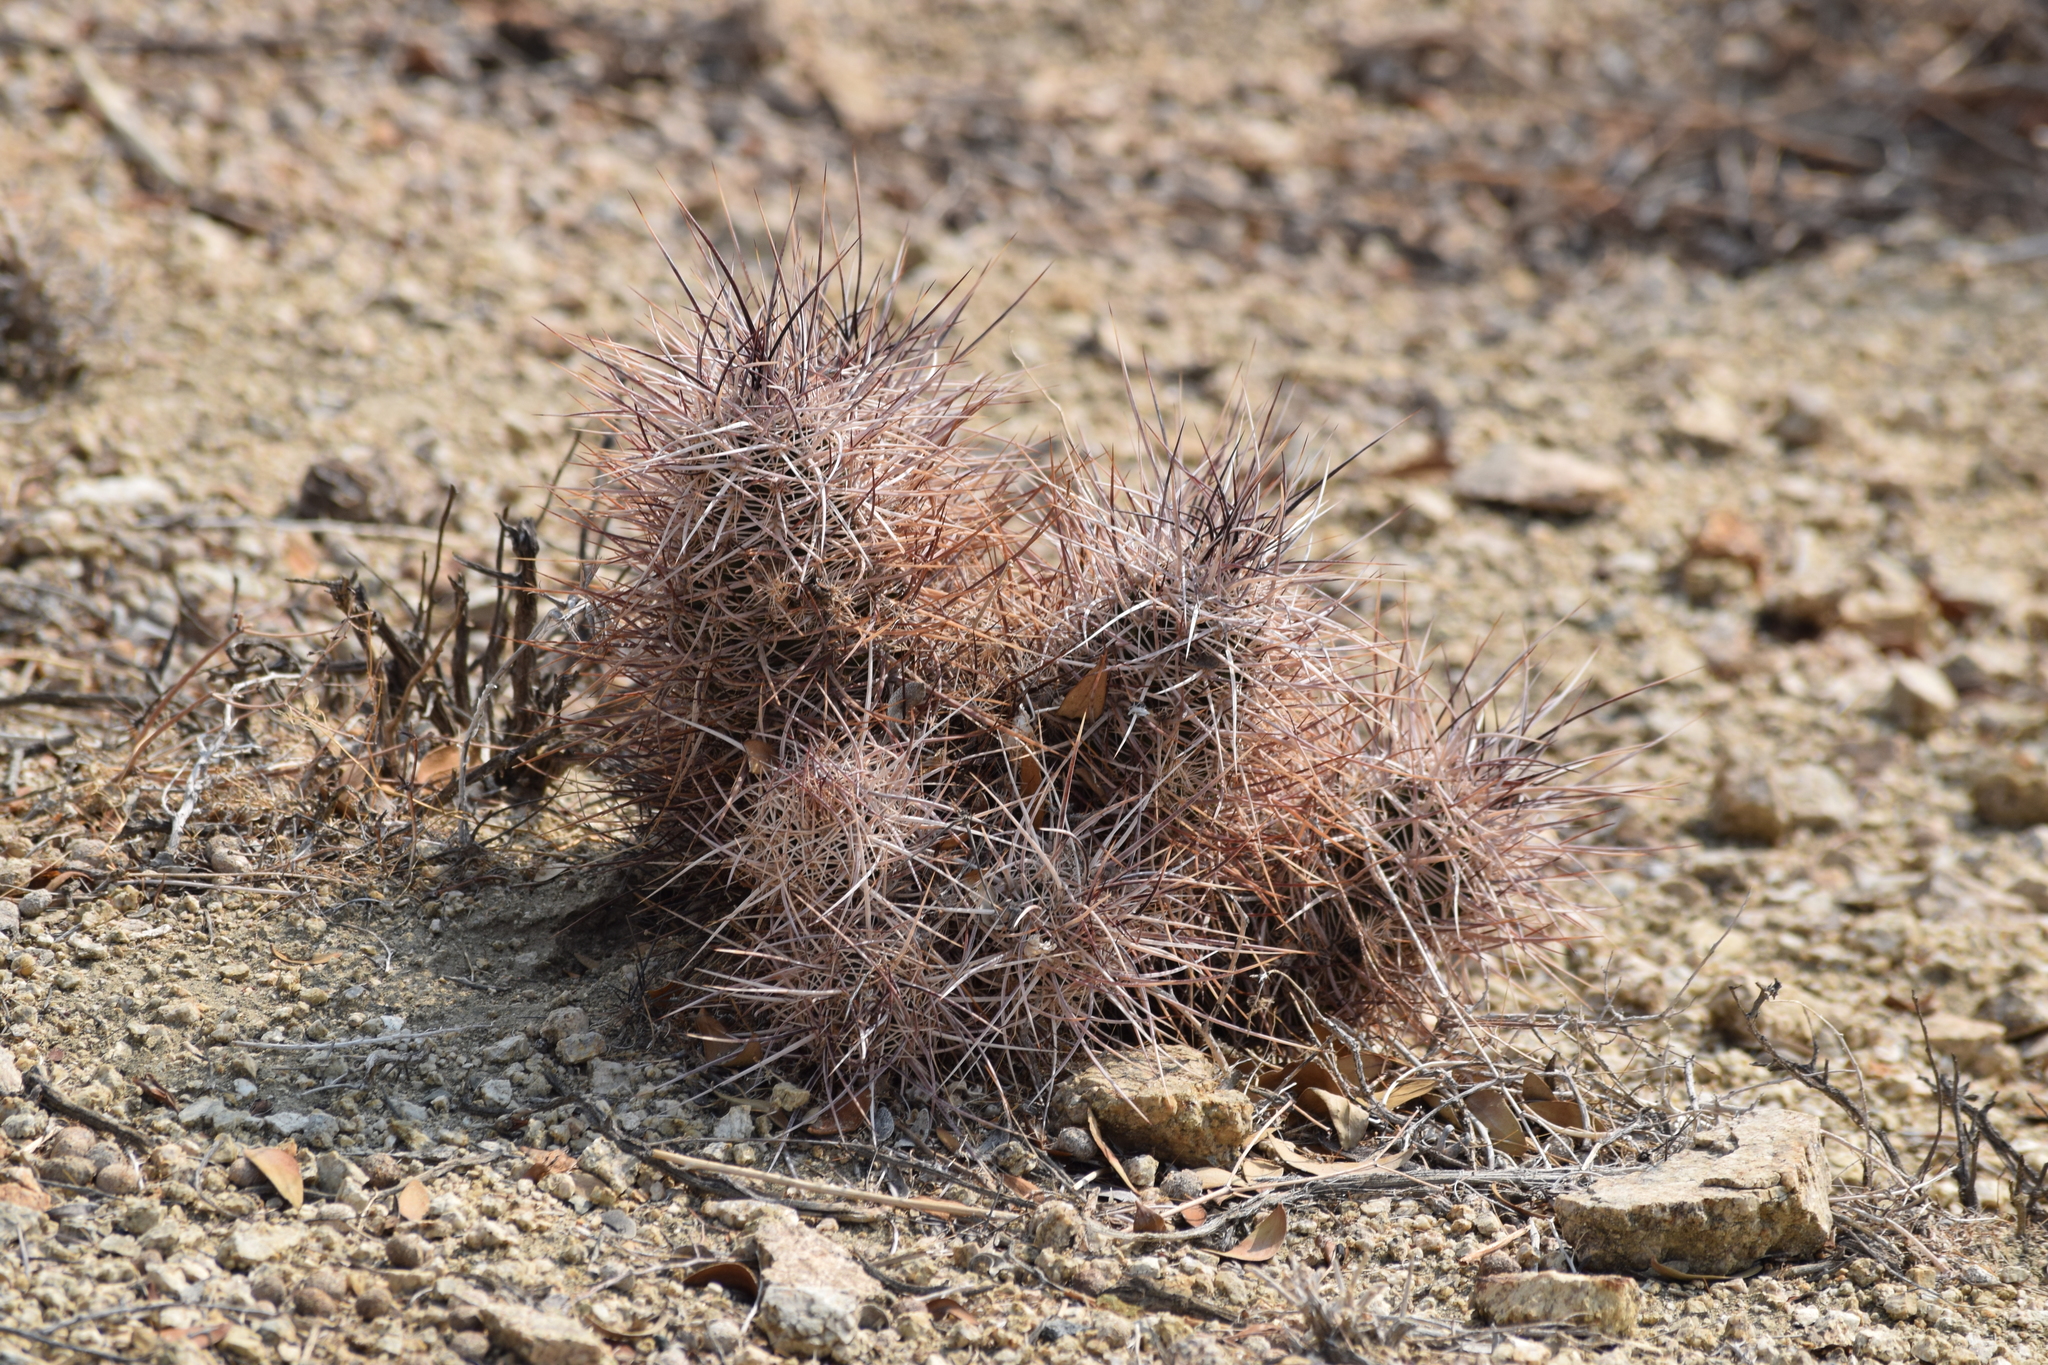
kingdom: Plantae
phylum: Tracheophyta
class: Magnoliopsida
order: Caryophyllales
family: Cactaceae
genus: Echinocereus
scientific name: Echinocereus engelmannii
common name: Engelmann's hedgehog cactus
